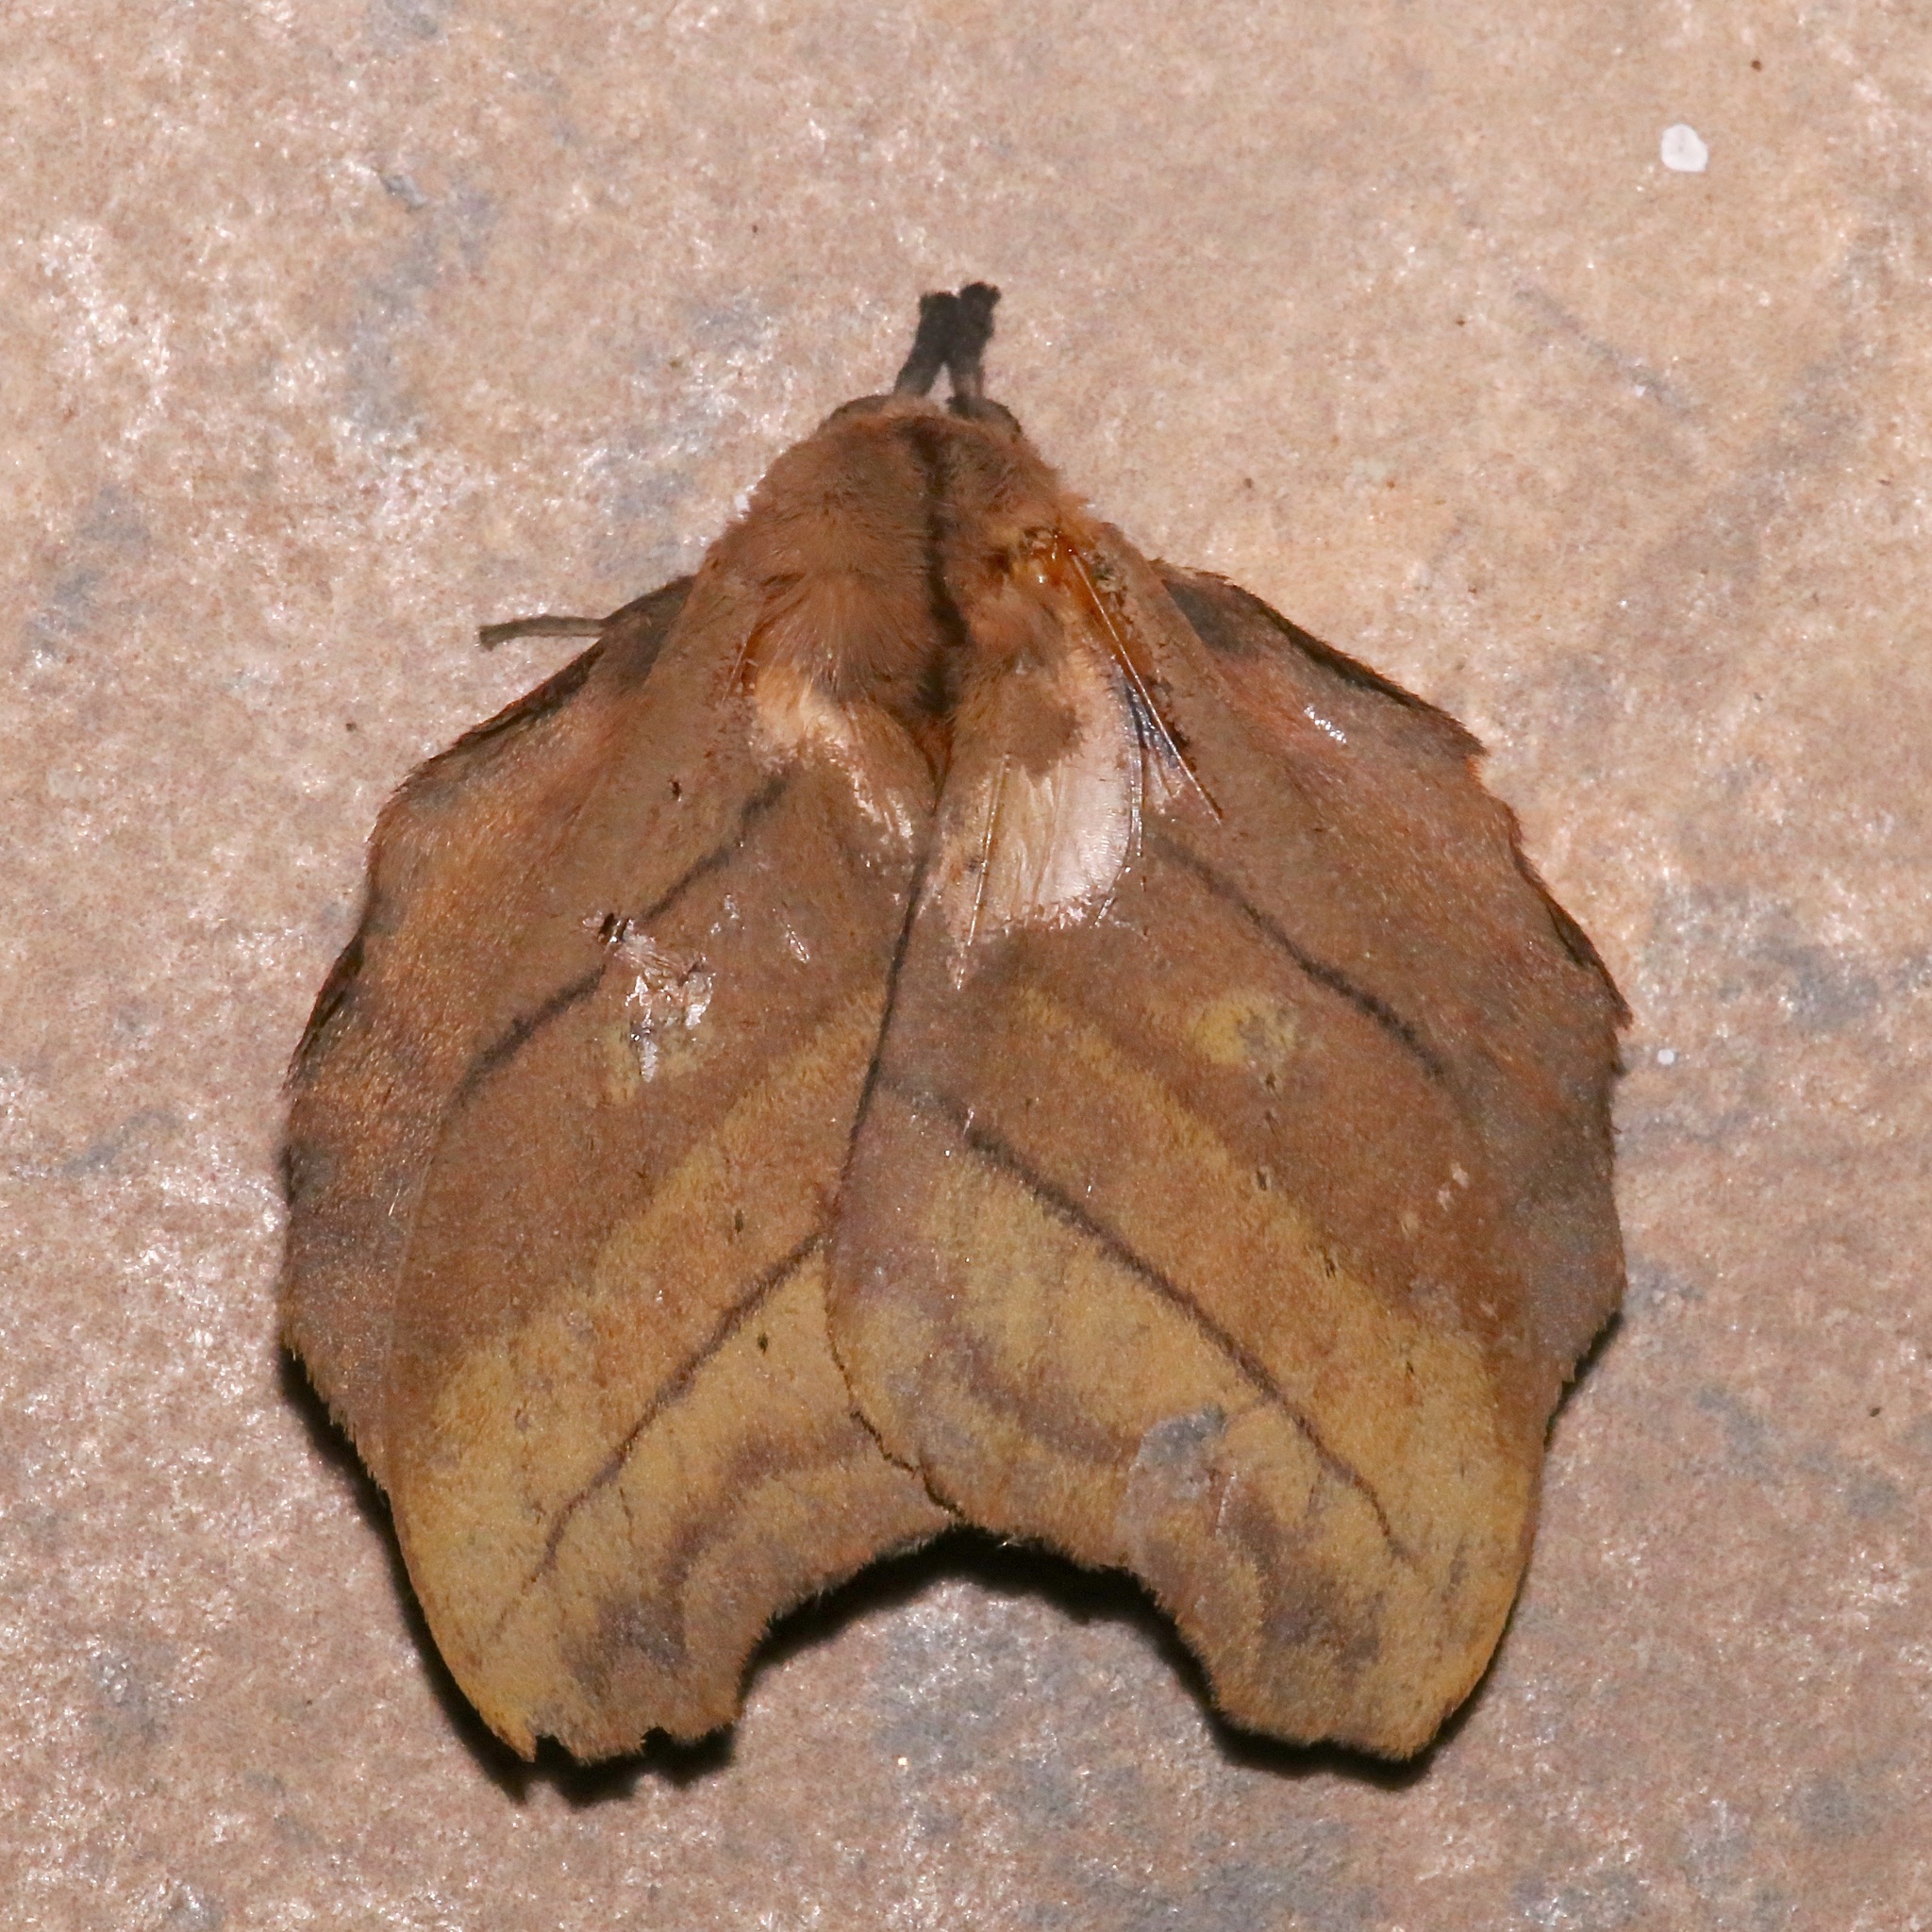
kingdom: Animalia
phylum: Arthropoda
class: Insecta
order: Lepidoptera
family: Saturniidae
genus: Hyperchiria
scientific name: Hyperchiria nausica
